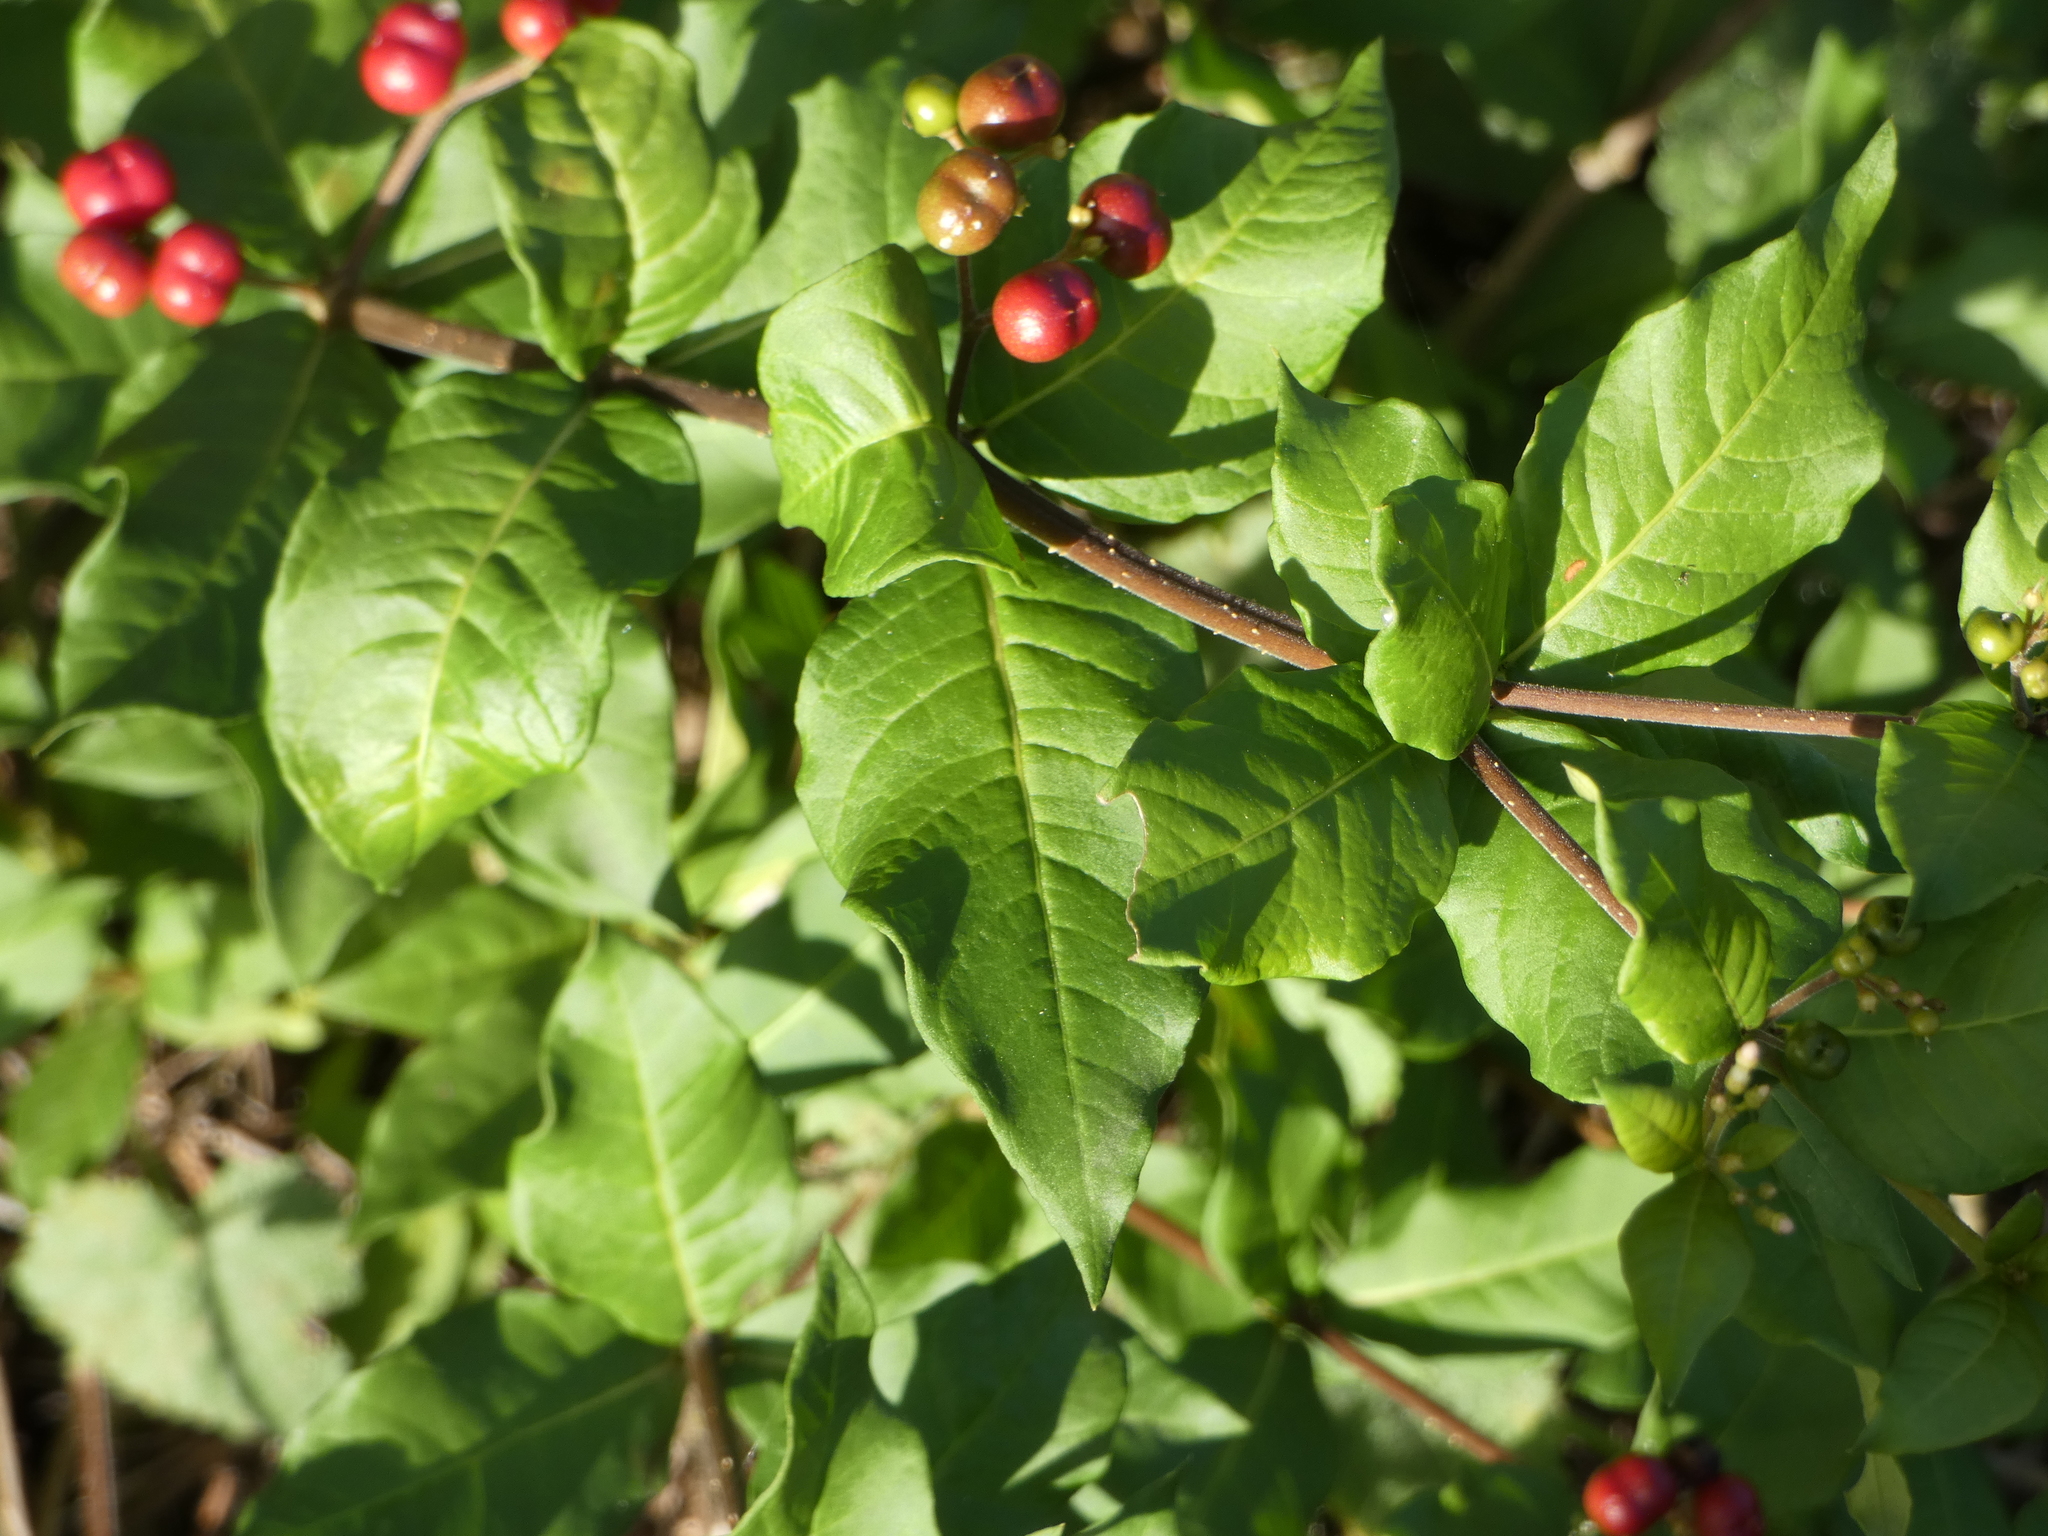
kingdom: Plantae
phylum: Tracheophyta
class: Magnoliopsida
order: Gentianales
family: Apocynaceae
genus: Rauvolfia
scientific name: Rauvolfia ligustrina
